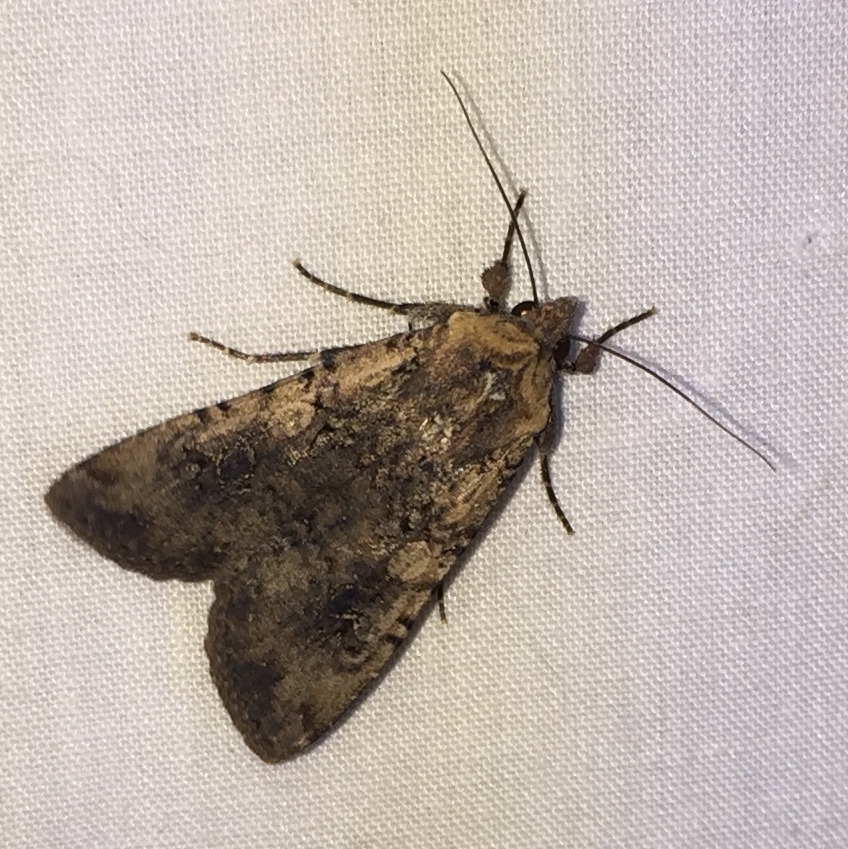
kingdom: Animalia
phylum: Arthropoda
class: Insecta
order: Lepidoptera
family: Noctuidae
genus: Peridroma
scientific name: Peridroma saucia
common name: Pearly underwing
